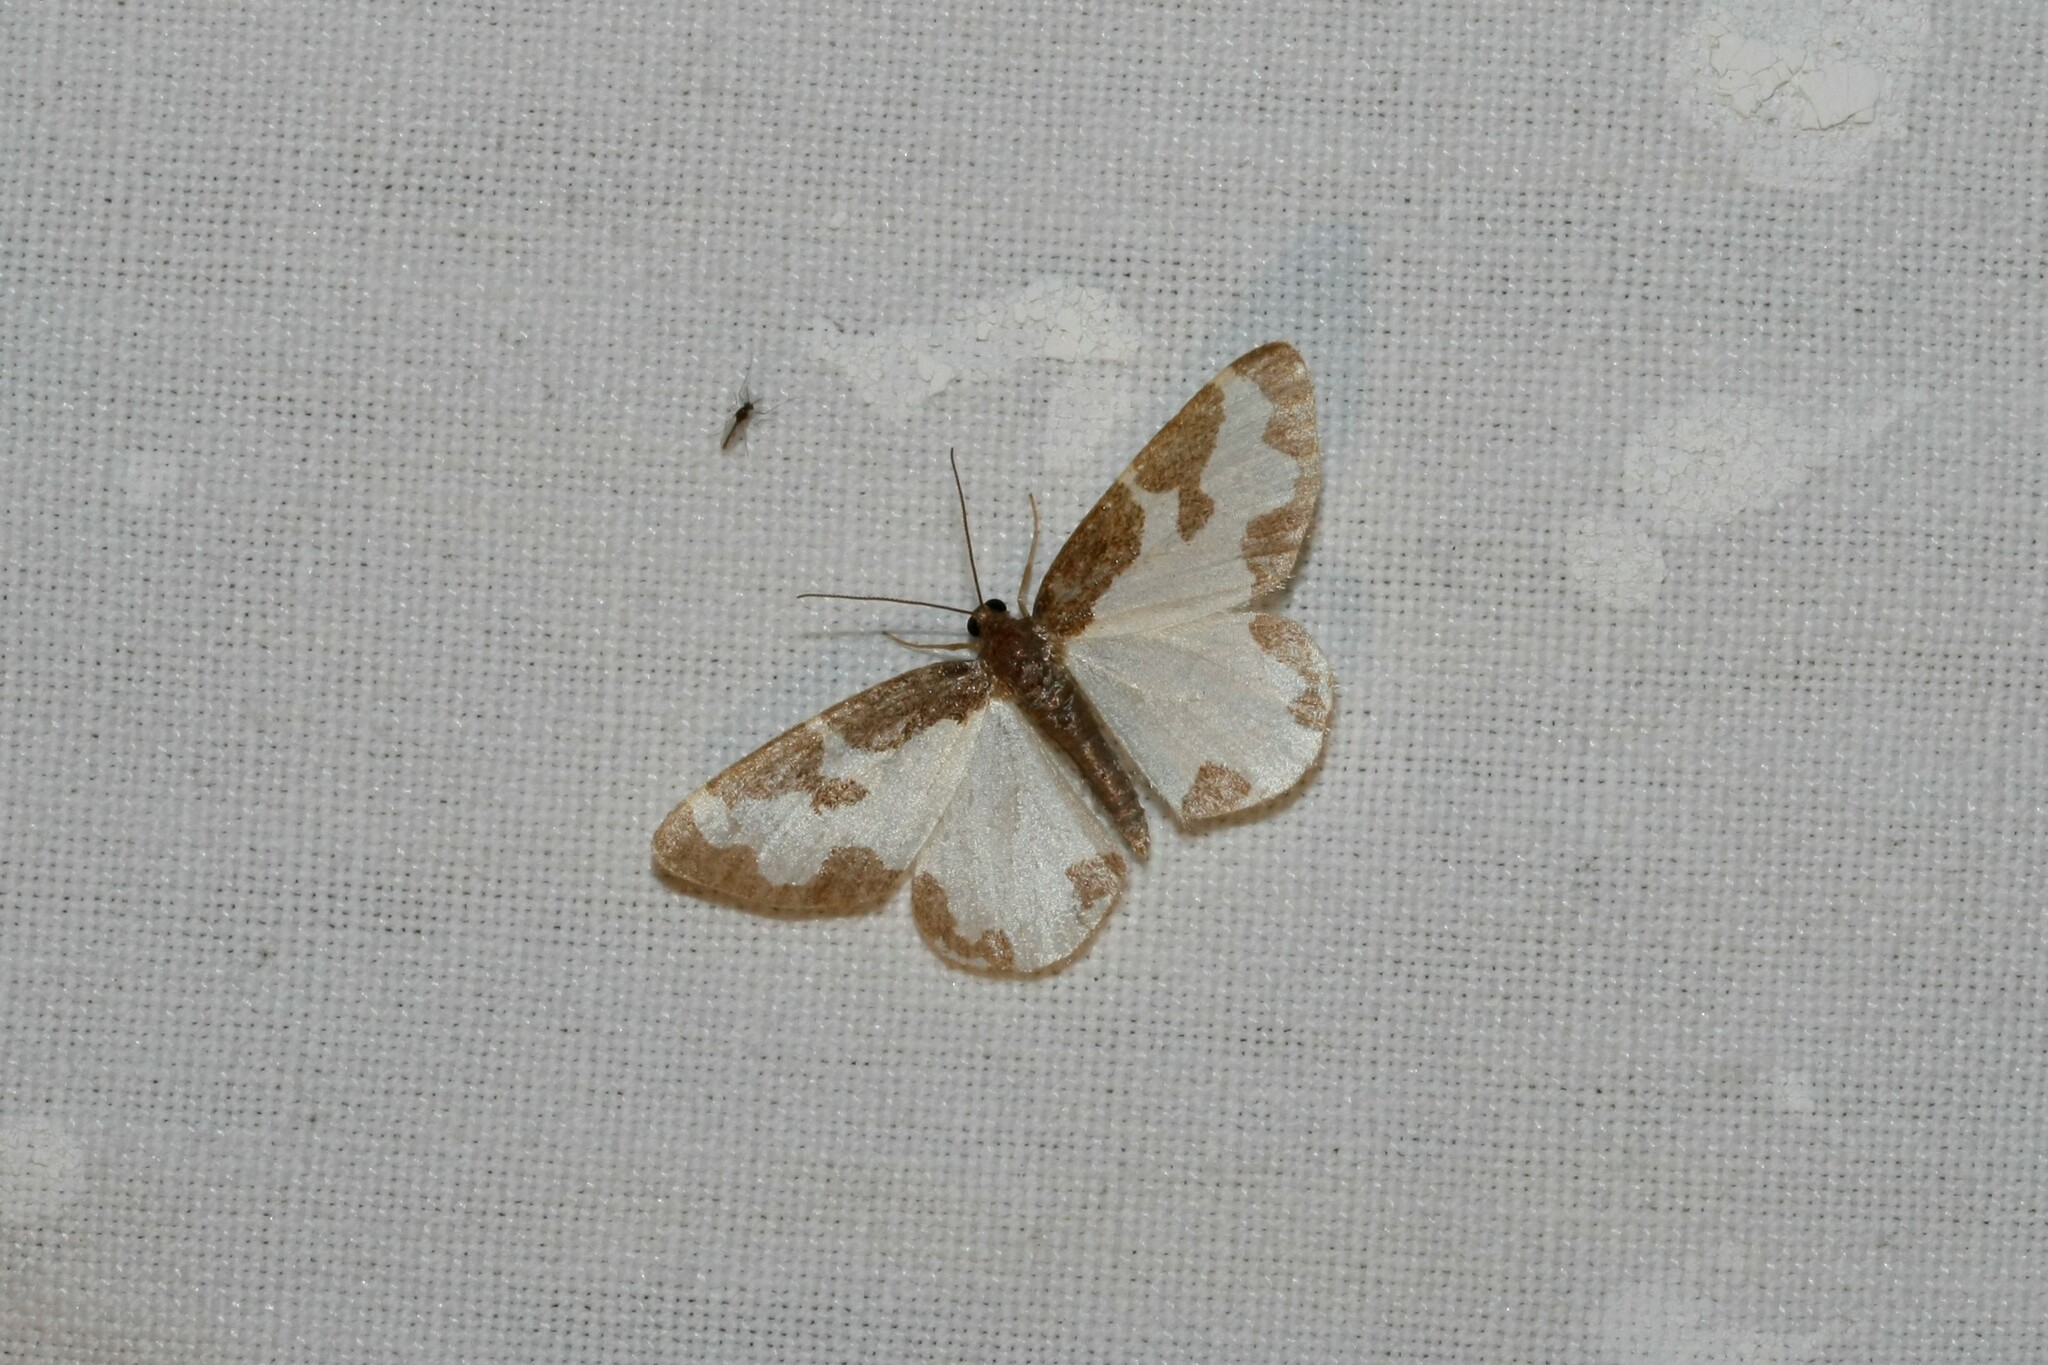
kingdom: Animalia
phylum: Arthropoda
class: Insecta
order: Lepidoptera
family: Geometridae
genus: Lomaspilis
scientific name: Lomaspilis marginata
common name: Clouded border
